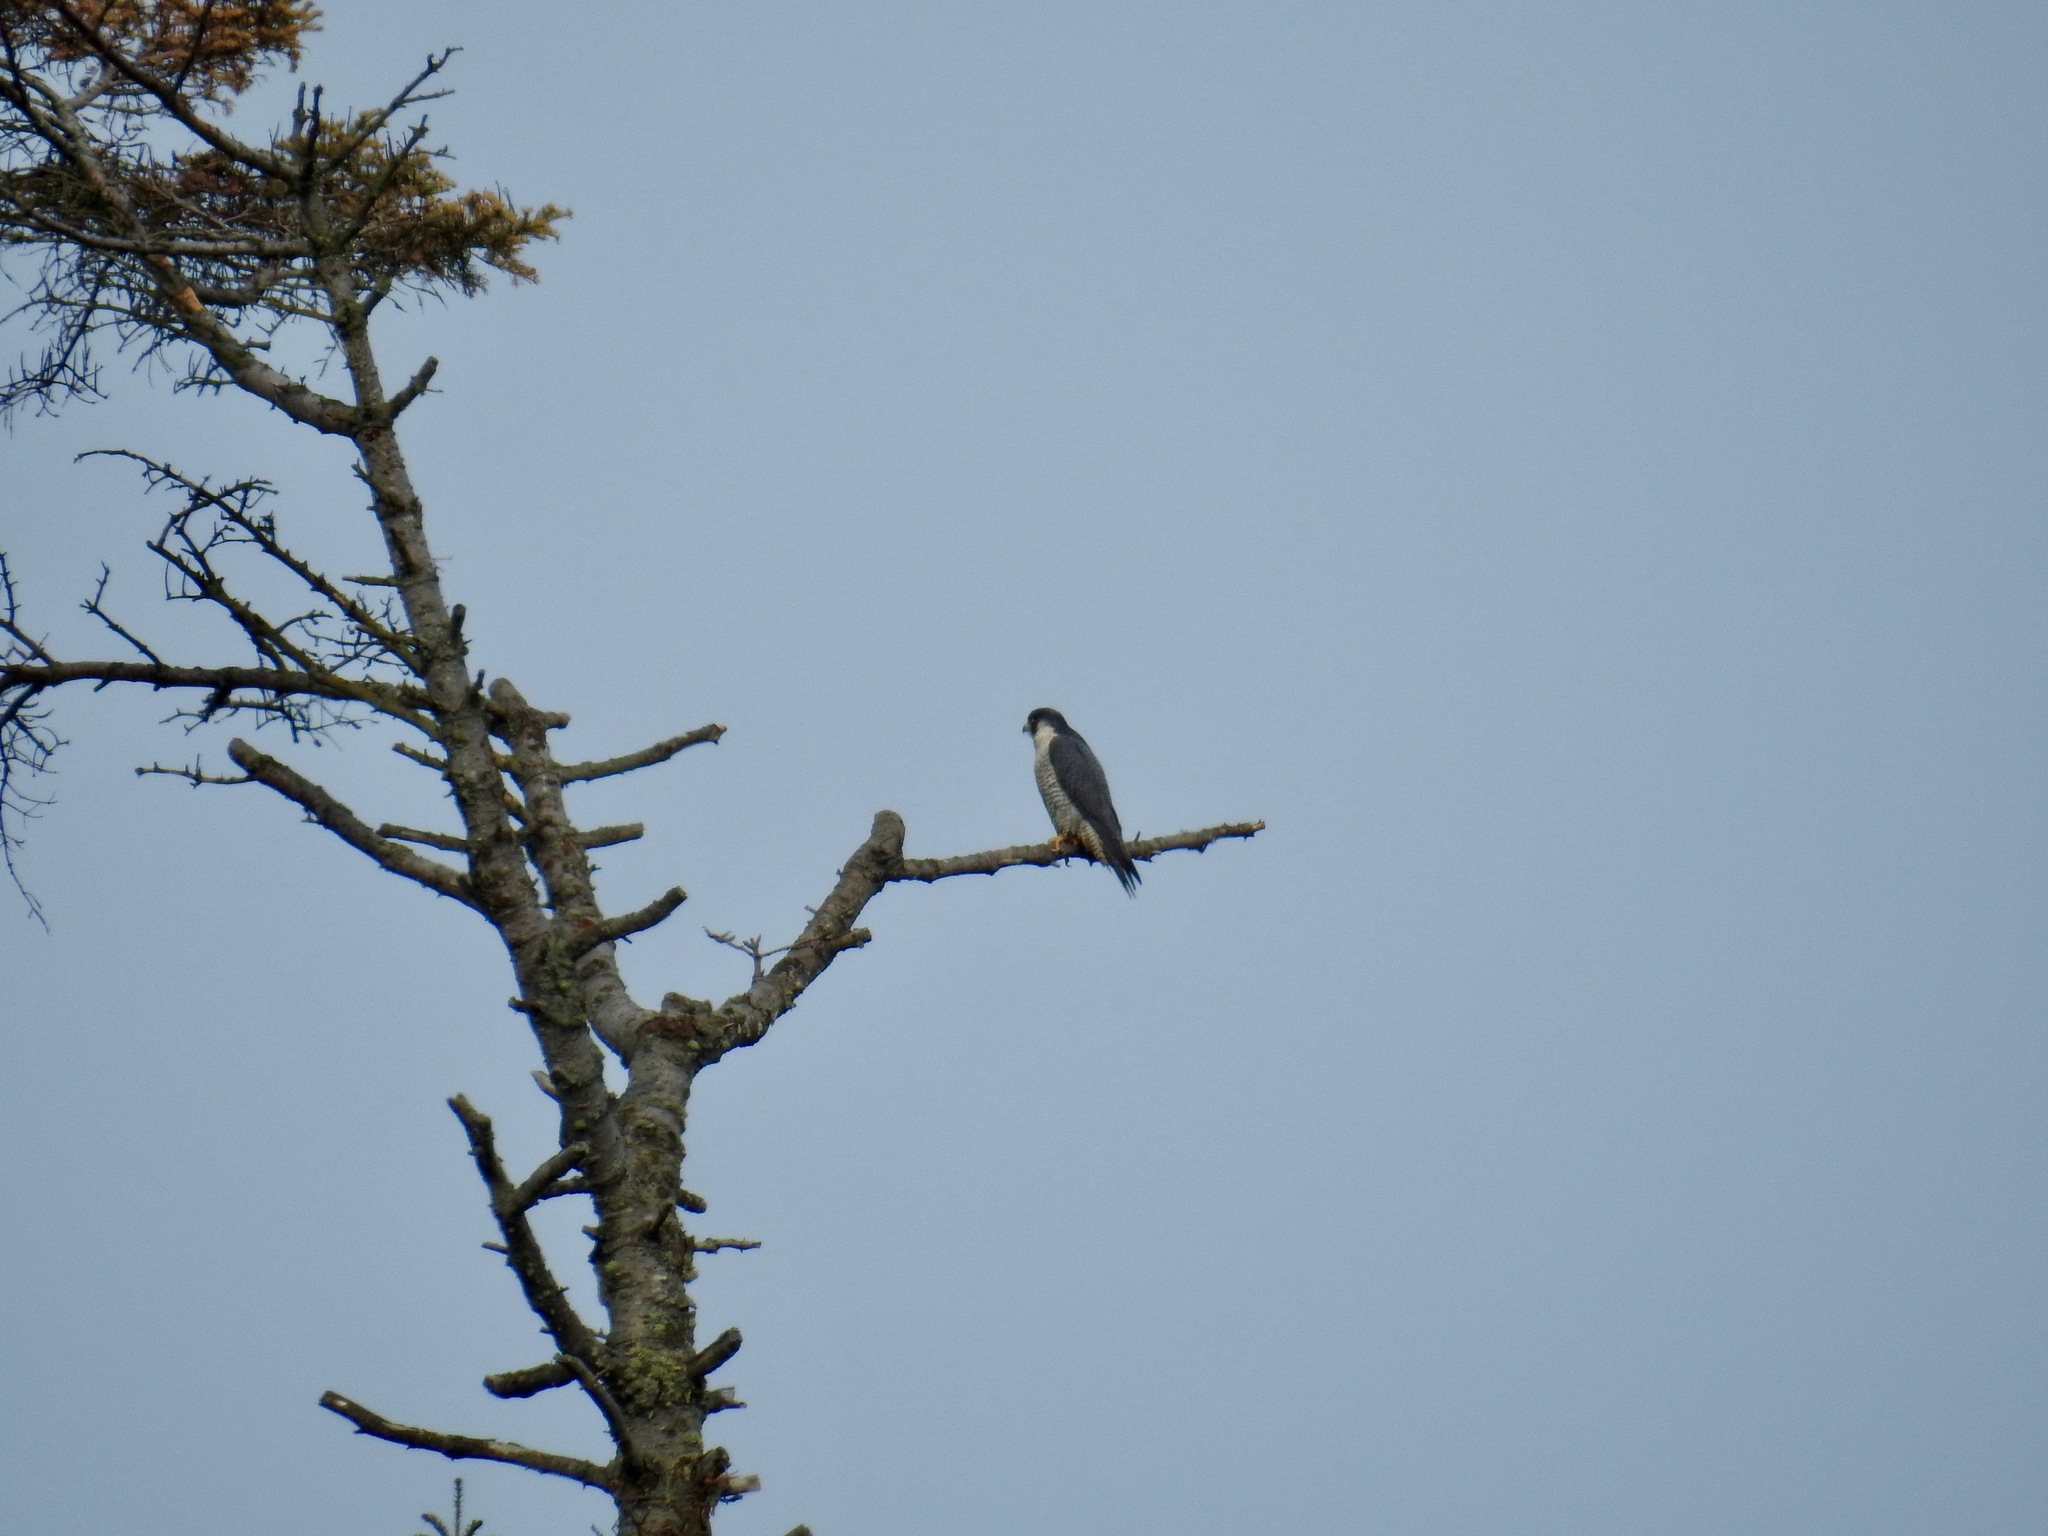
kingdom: Animalia
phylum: Chordata
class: Aves
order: Falconiformes
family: Falconidae
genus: Falco
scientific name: Falco peregrinus
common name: Peregrine falcon
